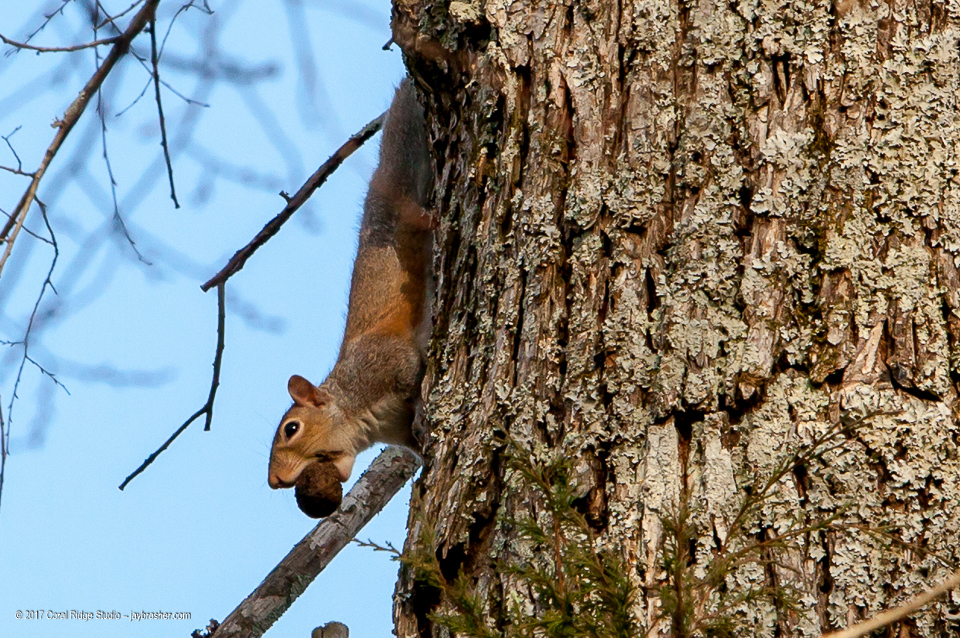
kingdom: Animalia
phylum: Chordata
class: Mammalia
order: Rodentia
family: Sciuridae
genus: Sciurus
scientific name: Sciurus carolinensis
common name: Eastern gray squirrel
